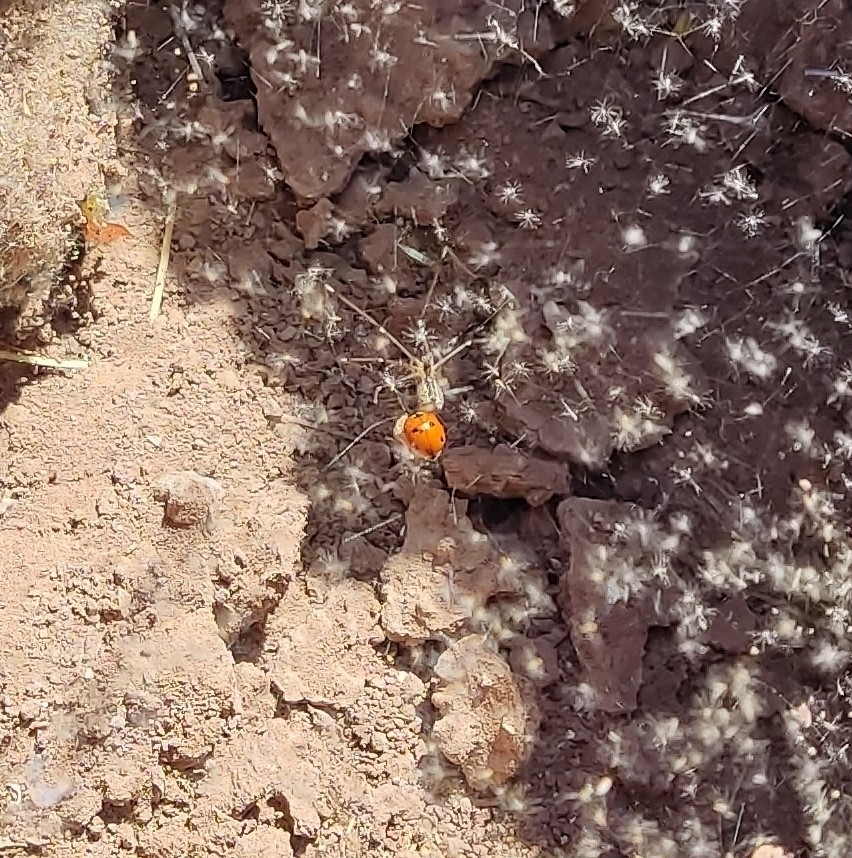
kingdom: Animalia
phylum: Arthropoda
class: Insecta
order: Coleoptera
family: Coccinellidae
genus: Coccinella
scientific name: Coccinella septempunctata
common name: Sevenspotted lady beetle
